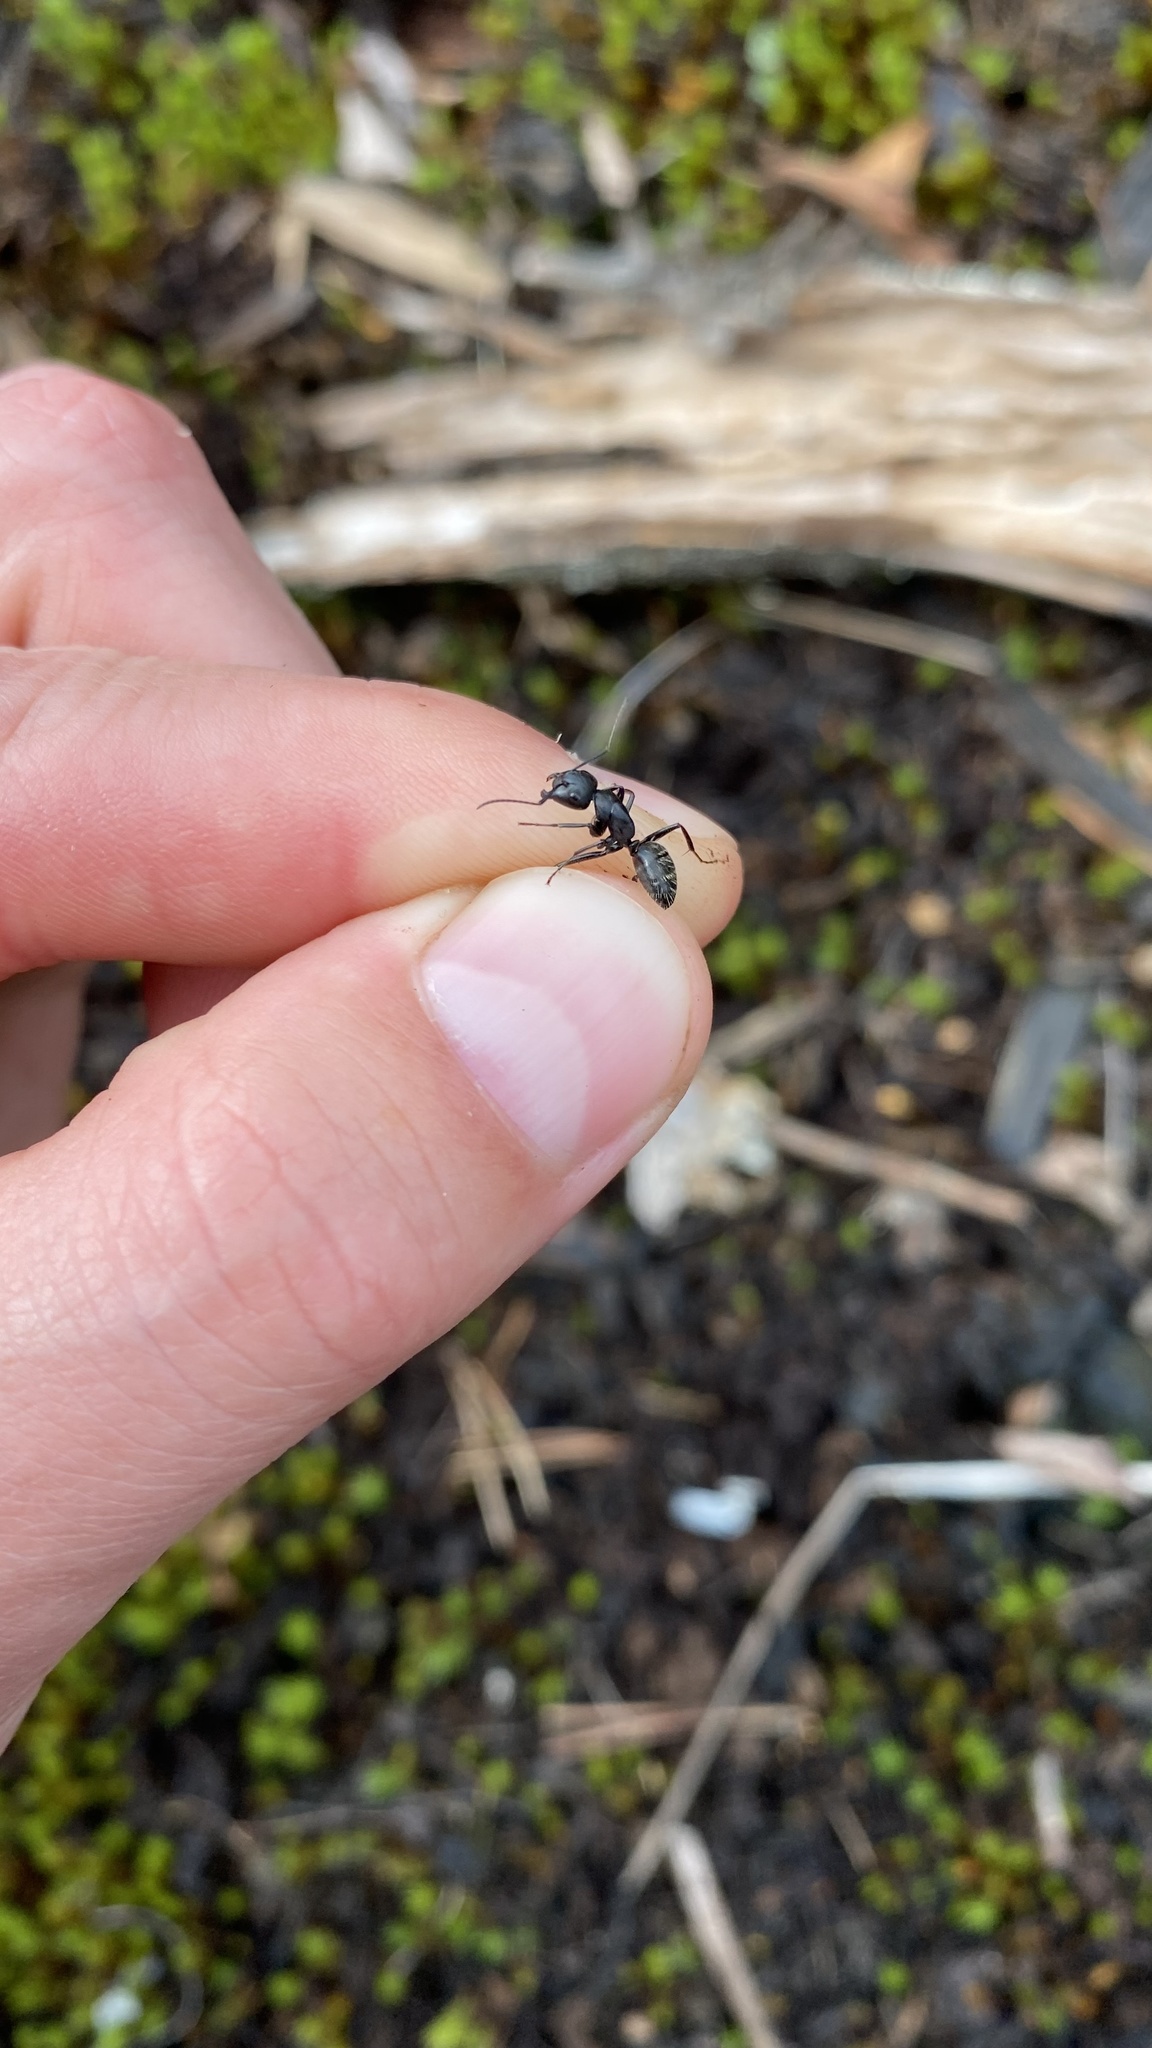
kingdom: Animalia
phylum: Arthropoda
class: Insecta
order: Hymenoptera
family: Formicidae
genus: Camponotus
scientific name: Camponotus vagus
